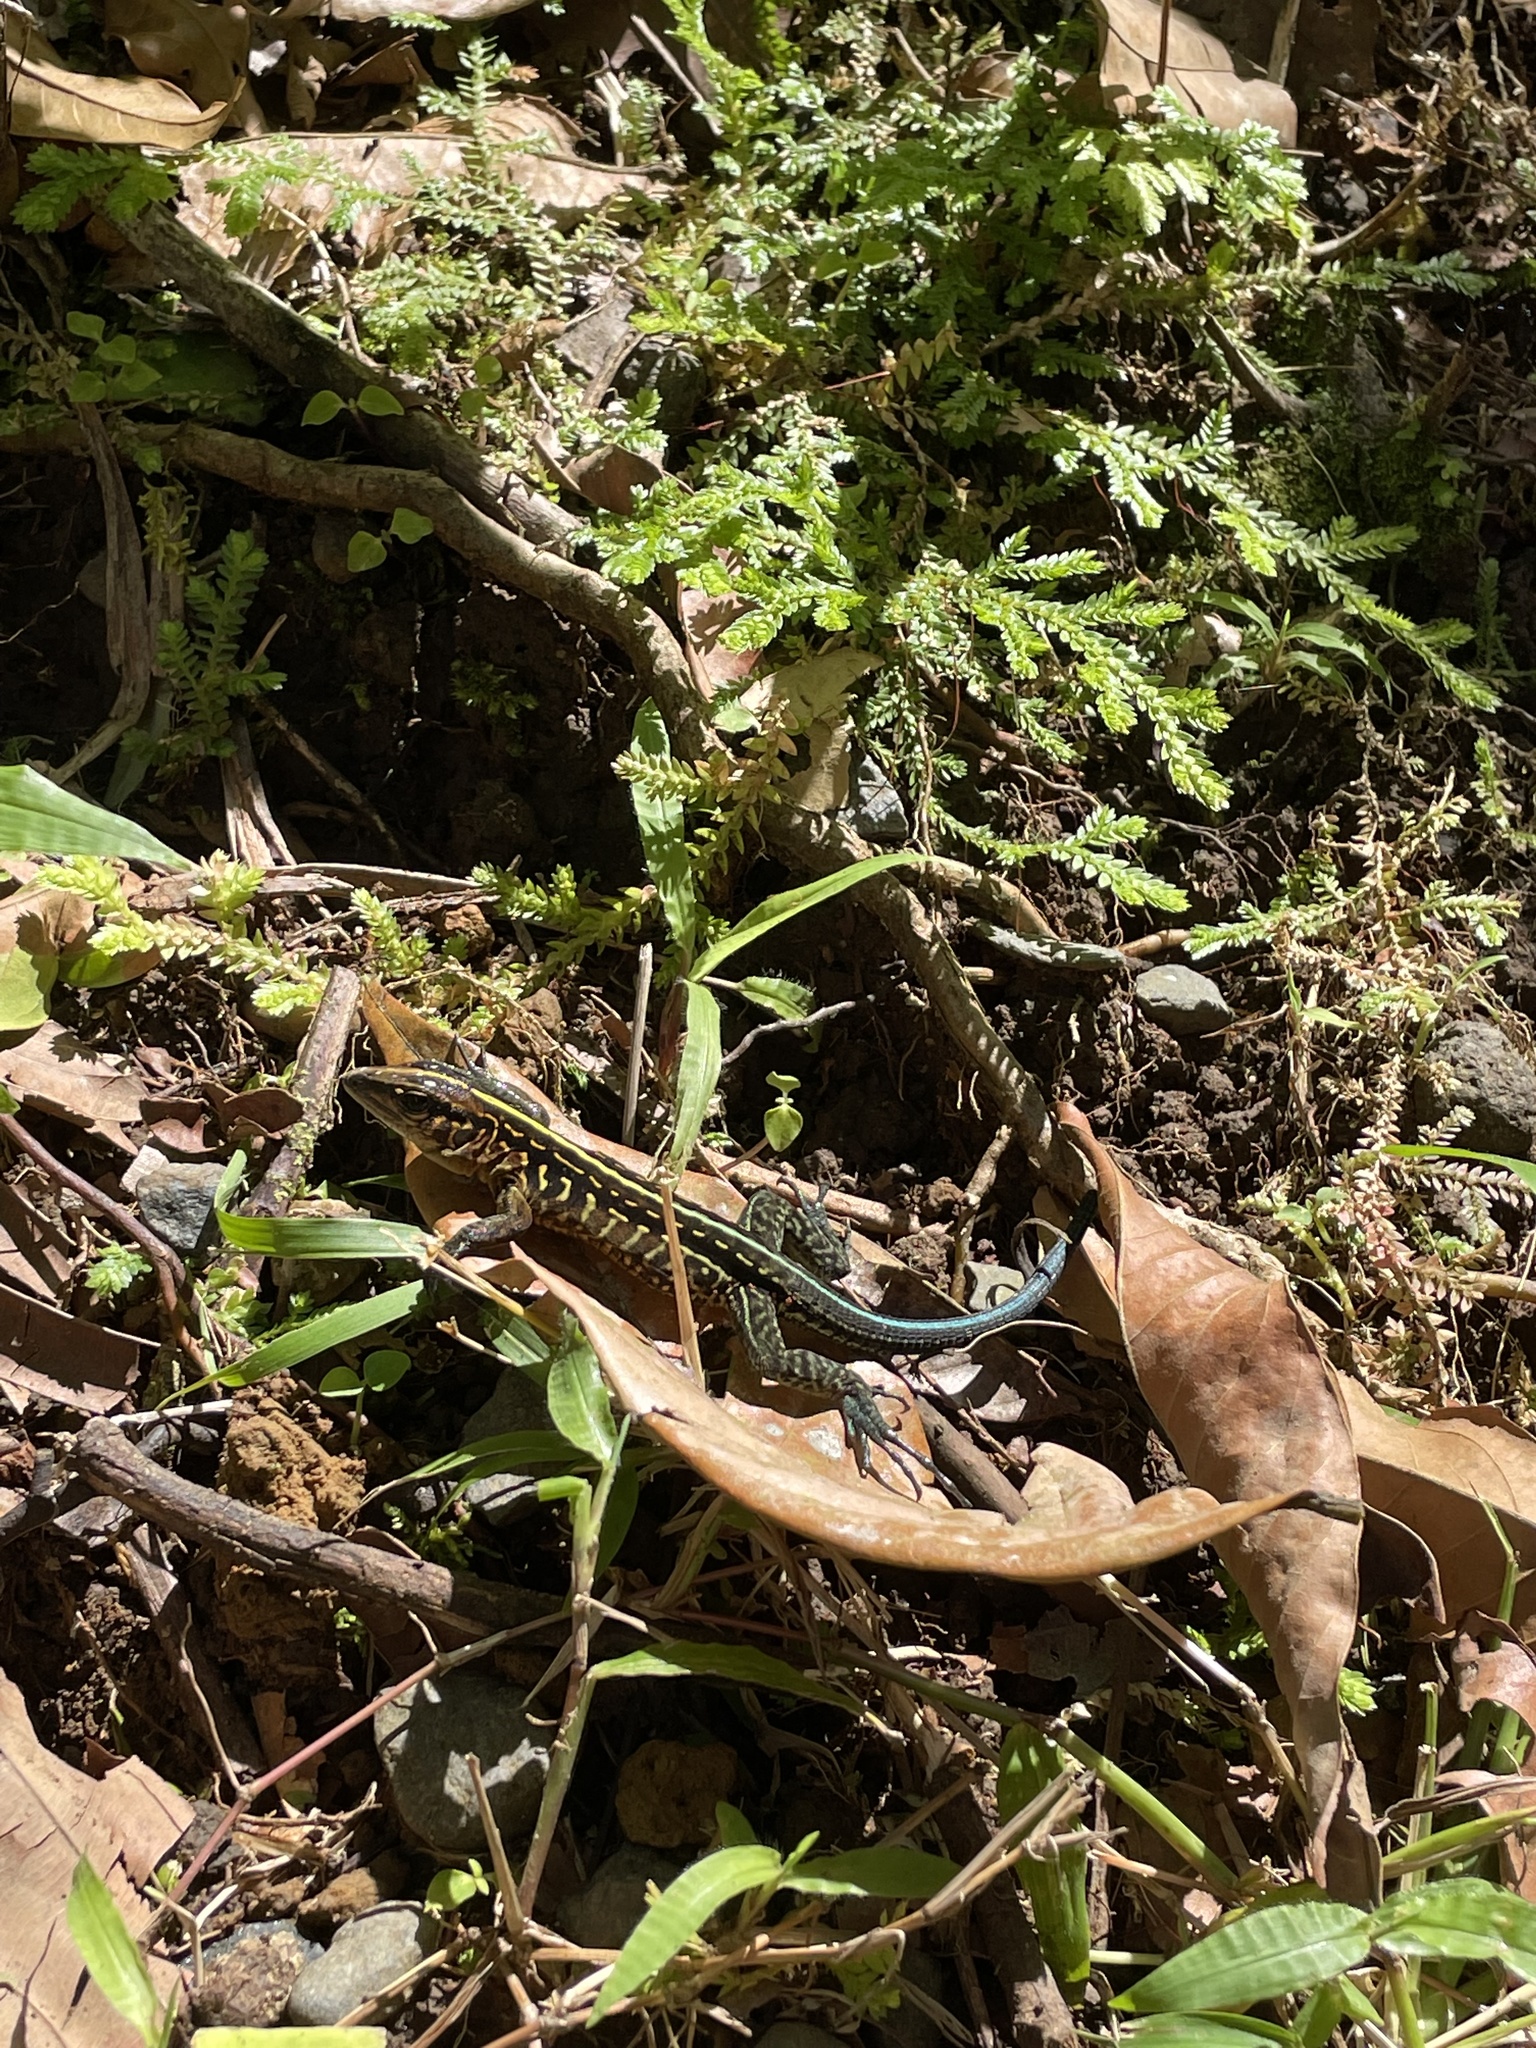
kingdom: Animalia
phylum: Chordata
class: Squamata
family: Teiidae
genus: Holcosus
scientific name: Holcosus festivus
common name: Middle american ameiva
